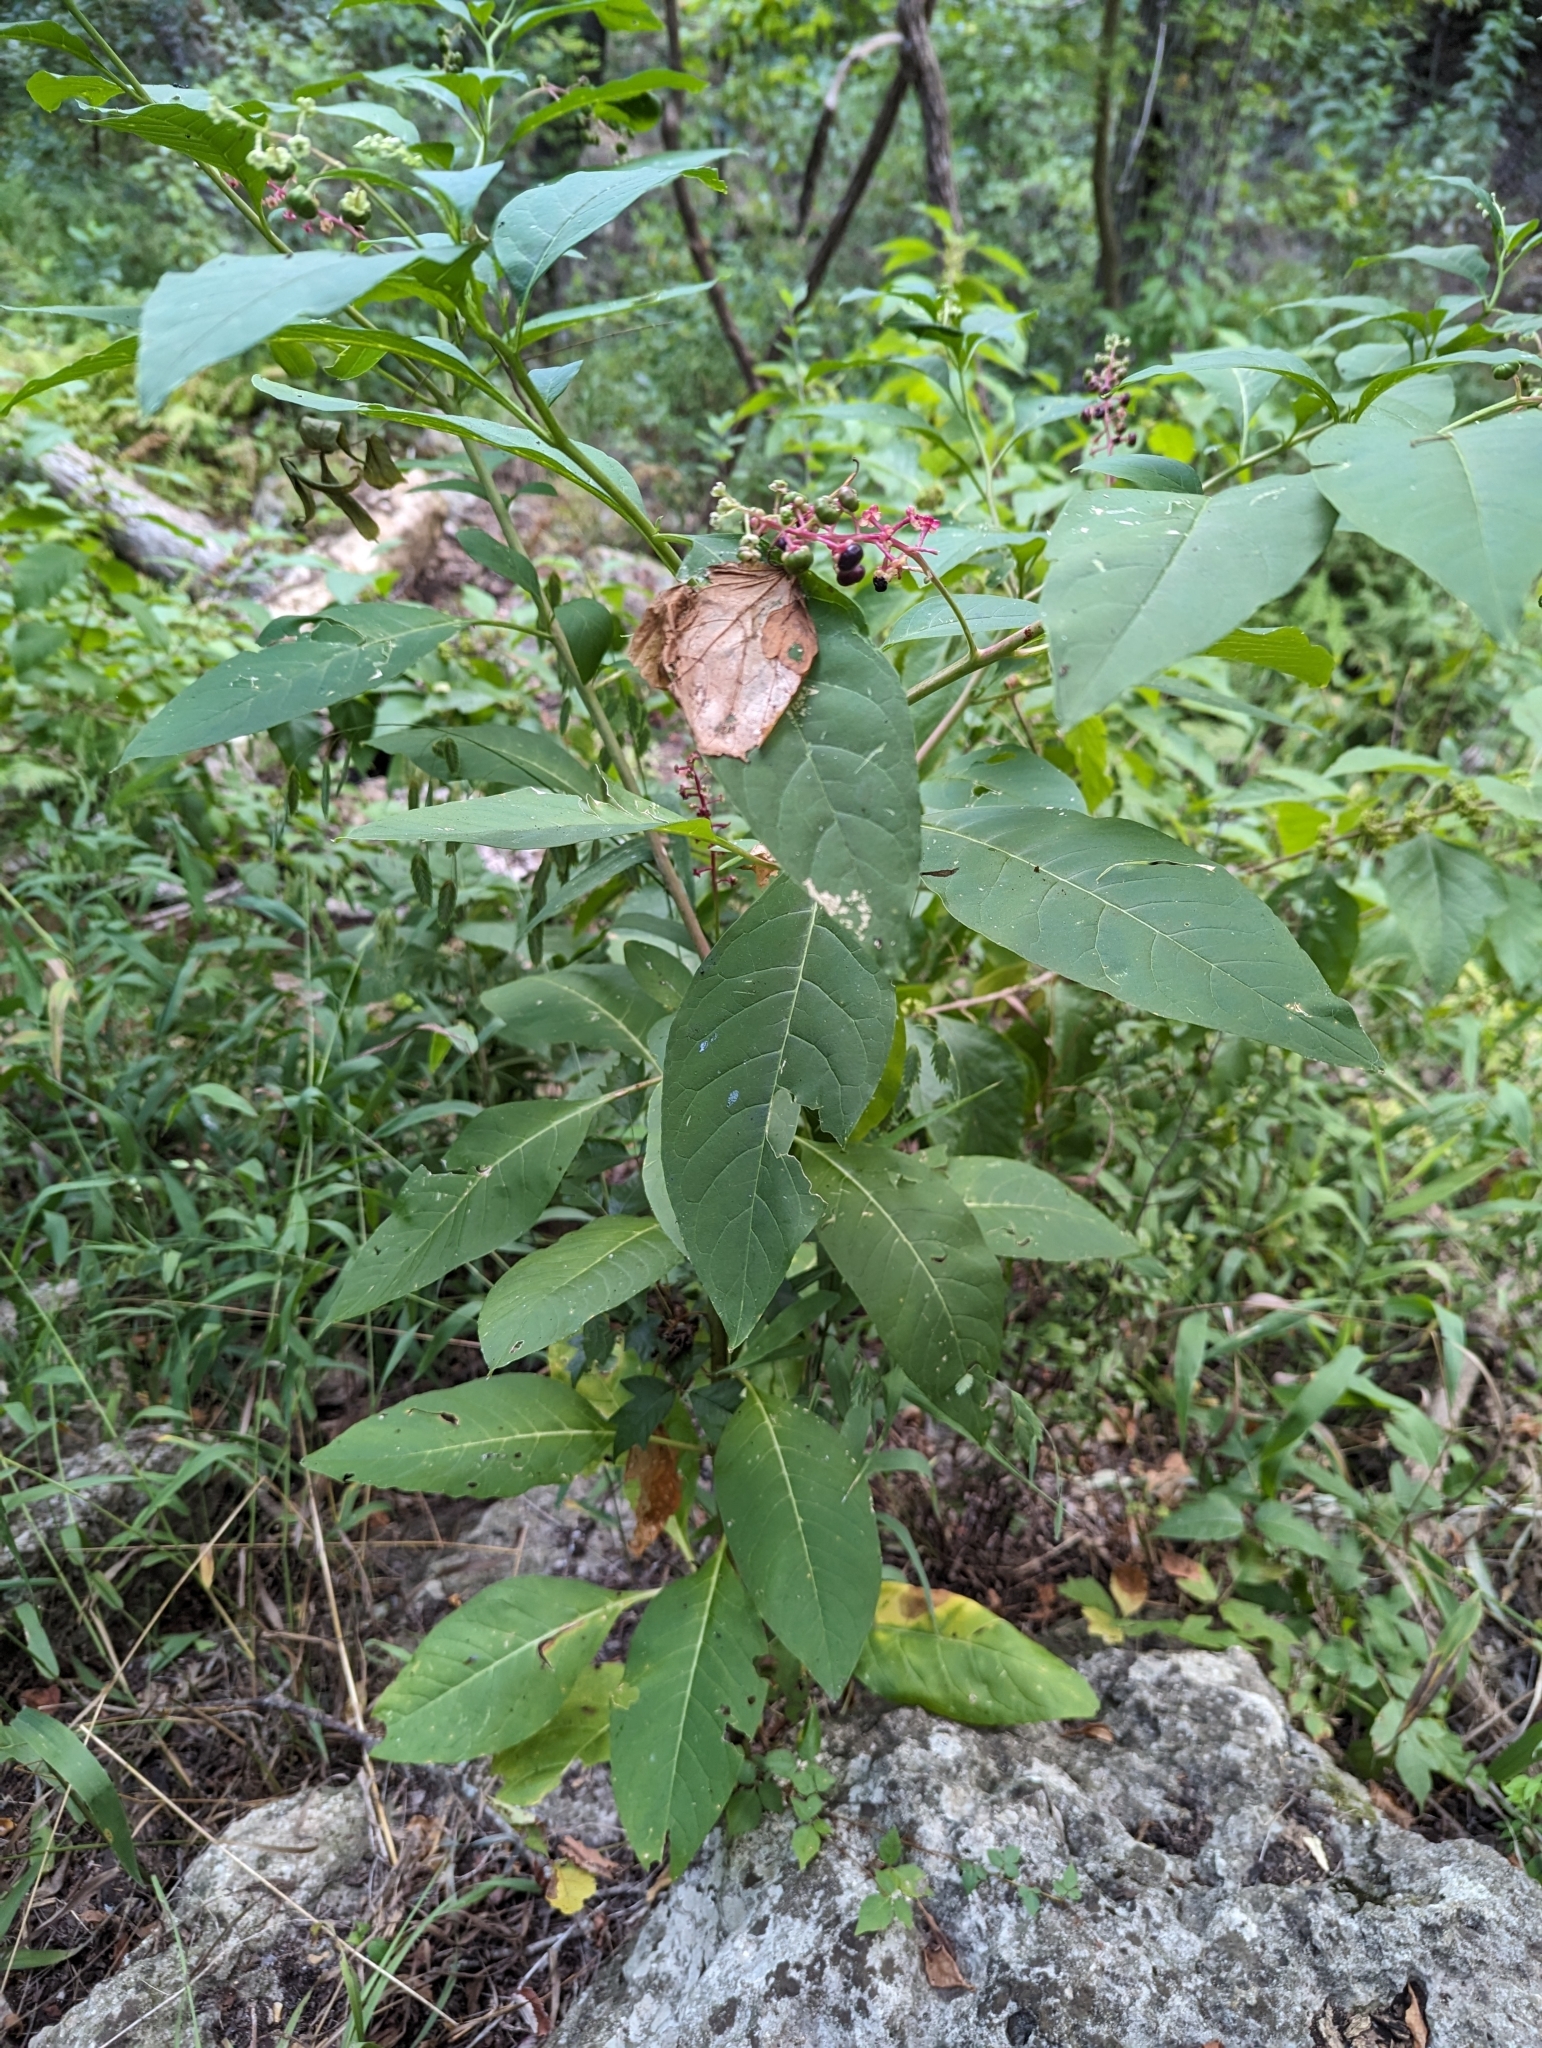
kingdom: Plantae
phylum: Tracheophyta
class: Magnoliopsida
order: Caryophyllales
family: Phytolaccaceae
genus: Phytolacca
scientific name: Phytolacca americana
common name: American pokeweed
